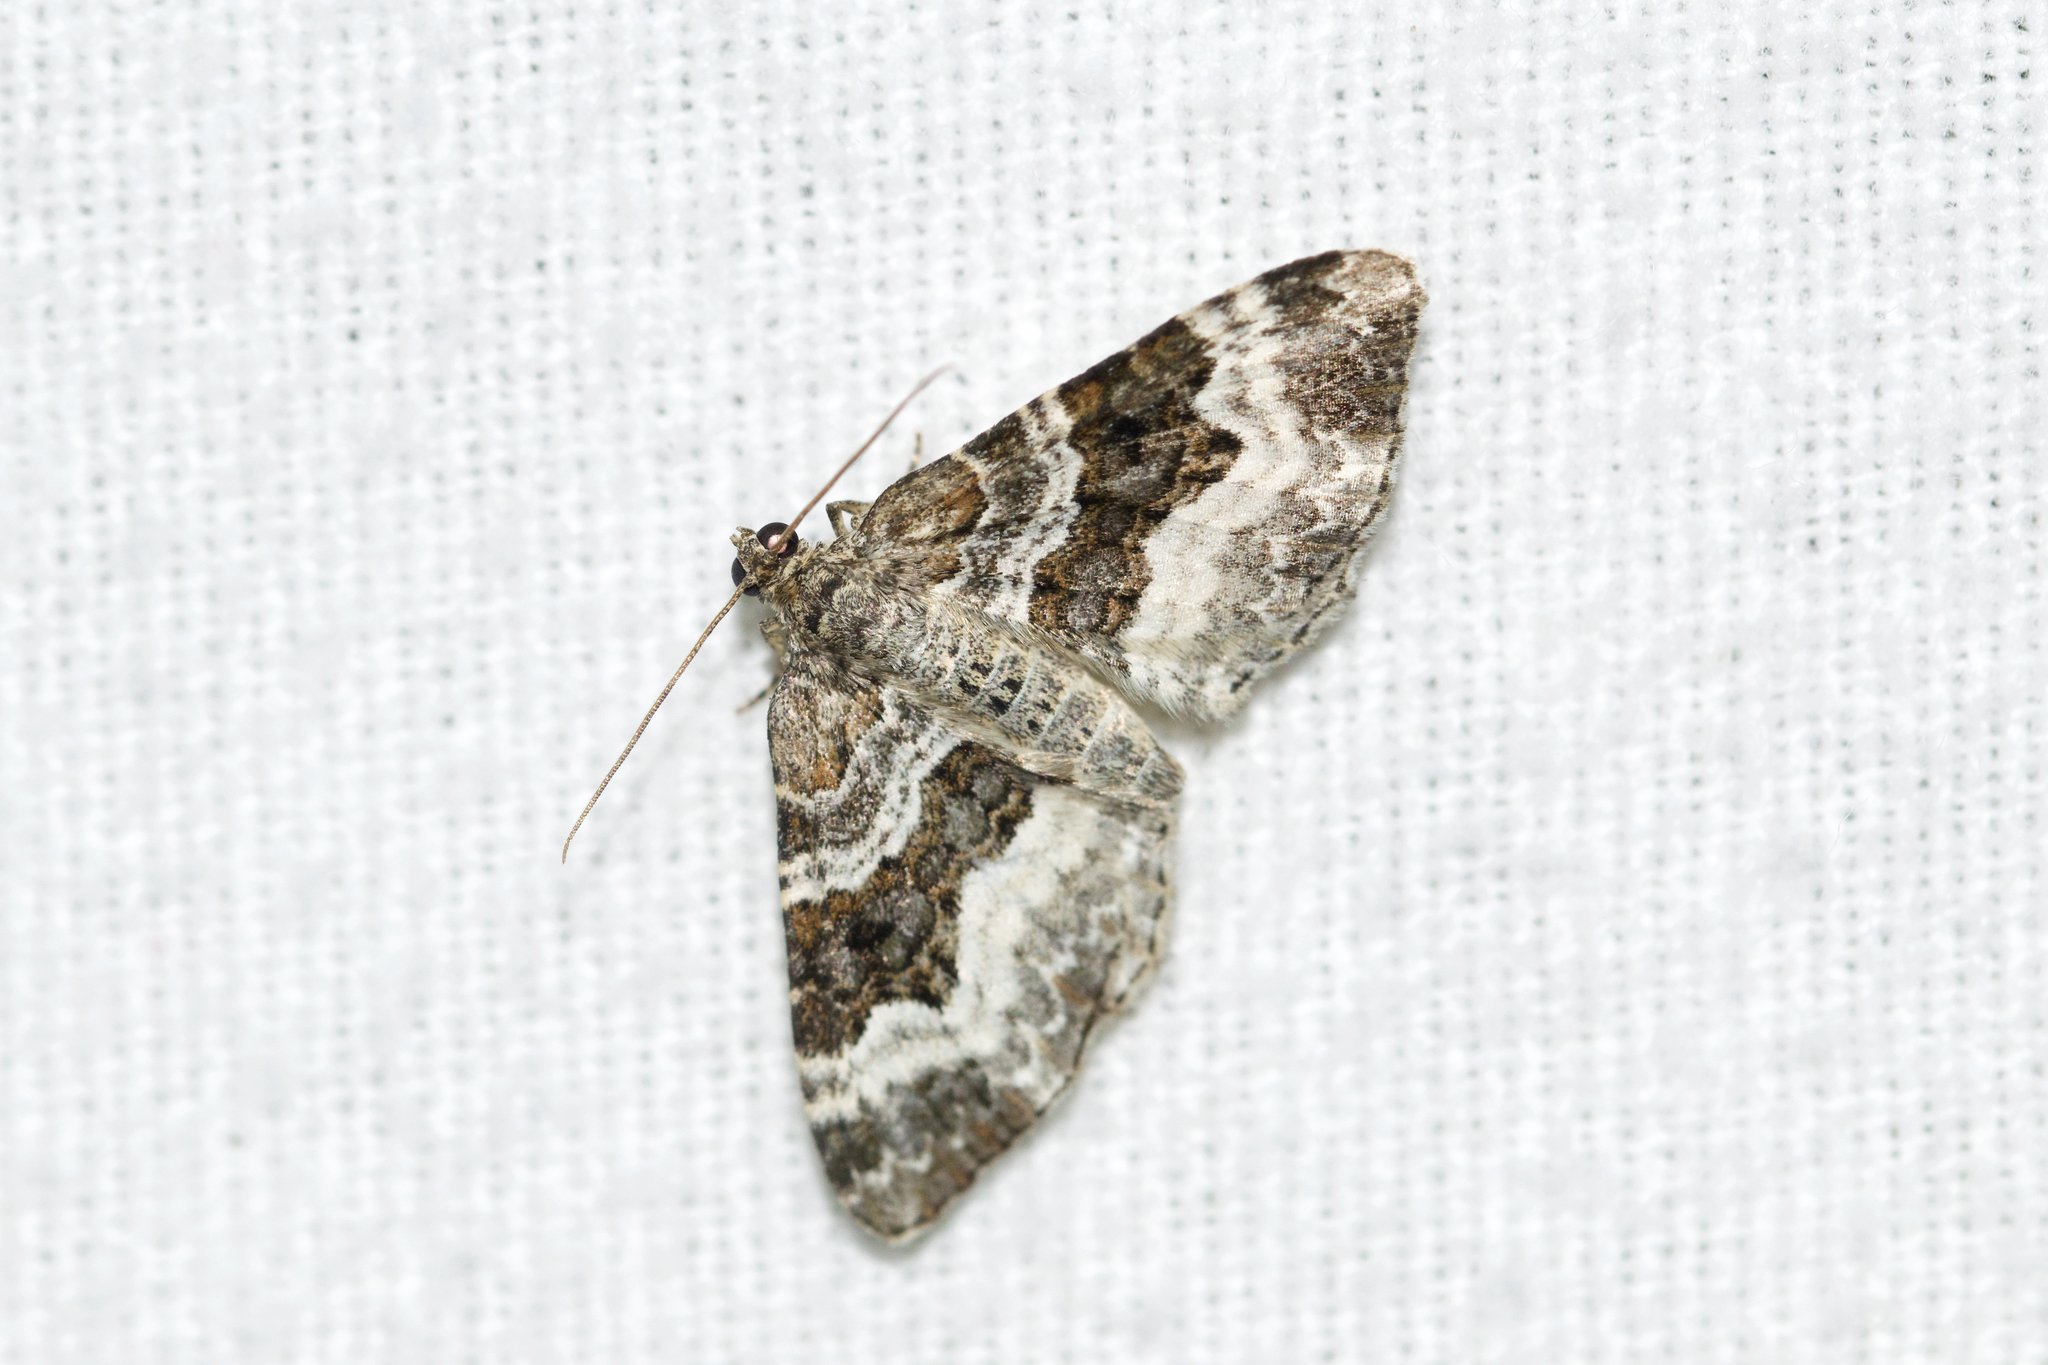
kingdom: Animalia
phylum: Arthropoda
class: Insecta
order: Lepidoptera
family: Geometridae
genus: Epirrhoe
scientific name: Epirrhoe alternata
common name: Common carpet
